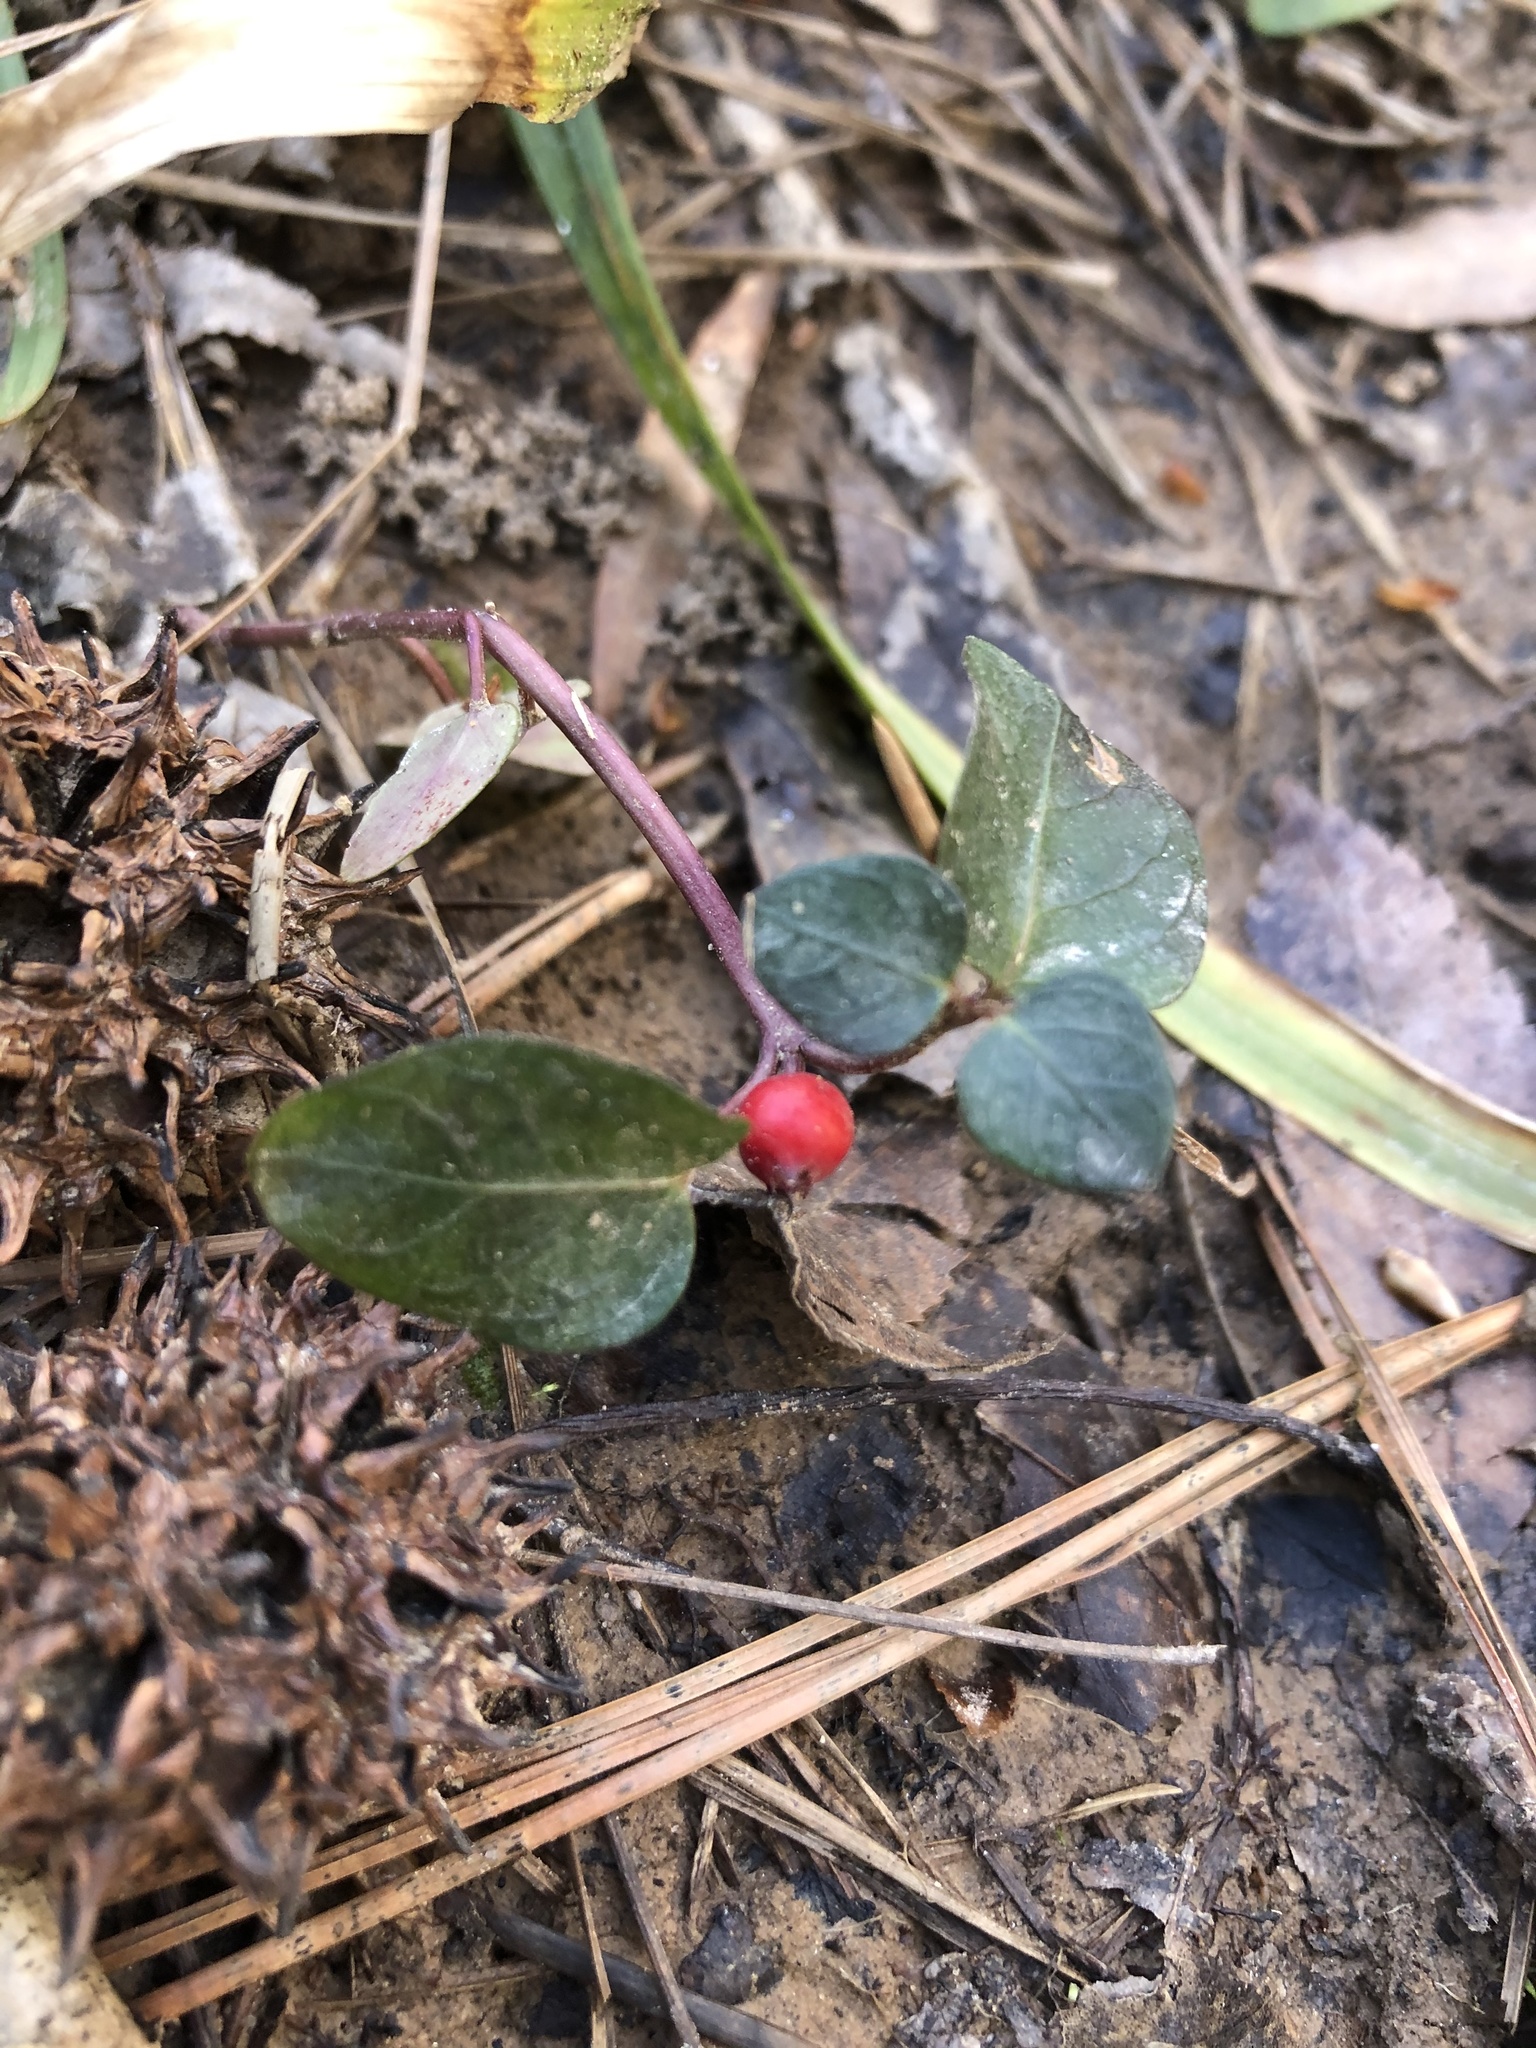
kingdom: Plantae
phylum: Tracheophyta
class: Magnoliopsida
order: Gentianales
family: Rubiaceae
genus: Mitchella
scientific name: Mitchella repens
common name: Partridge-berry
